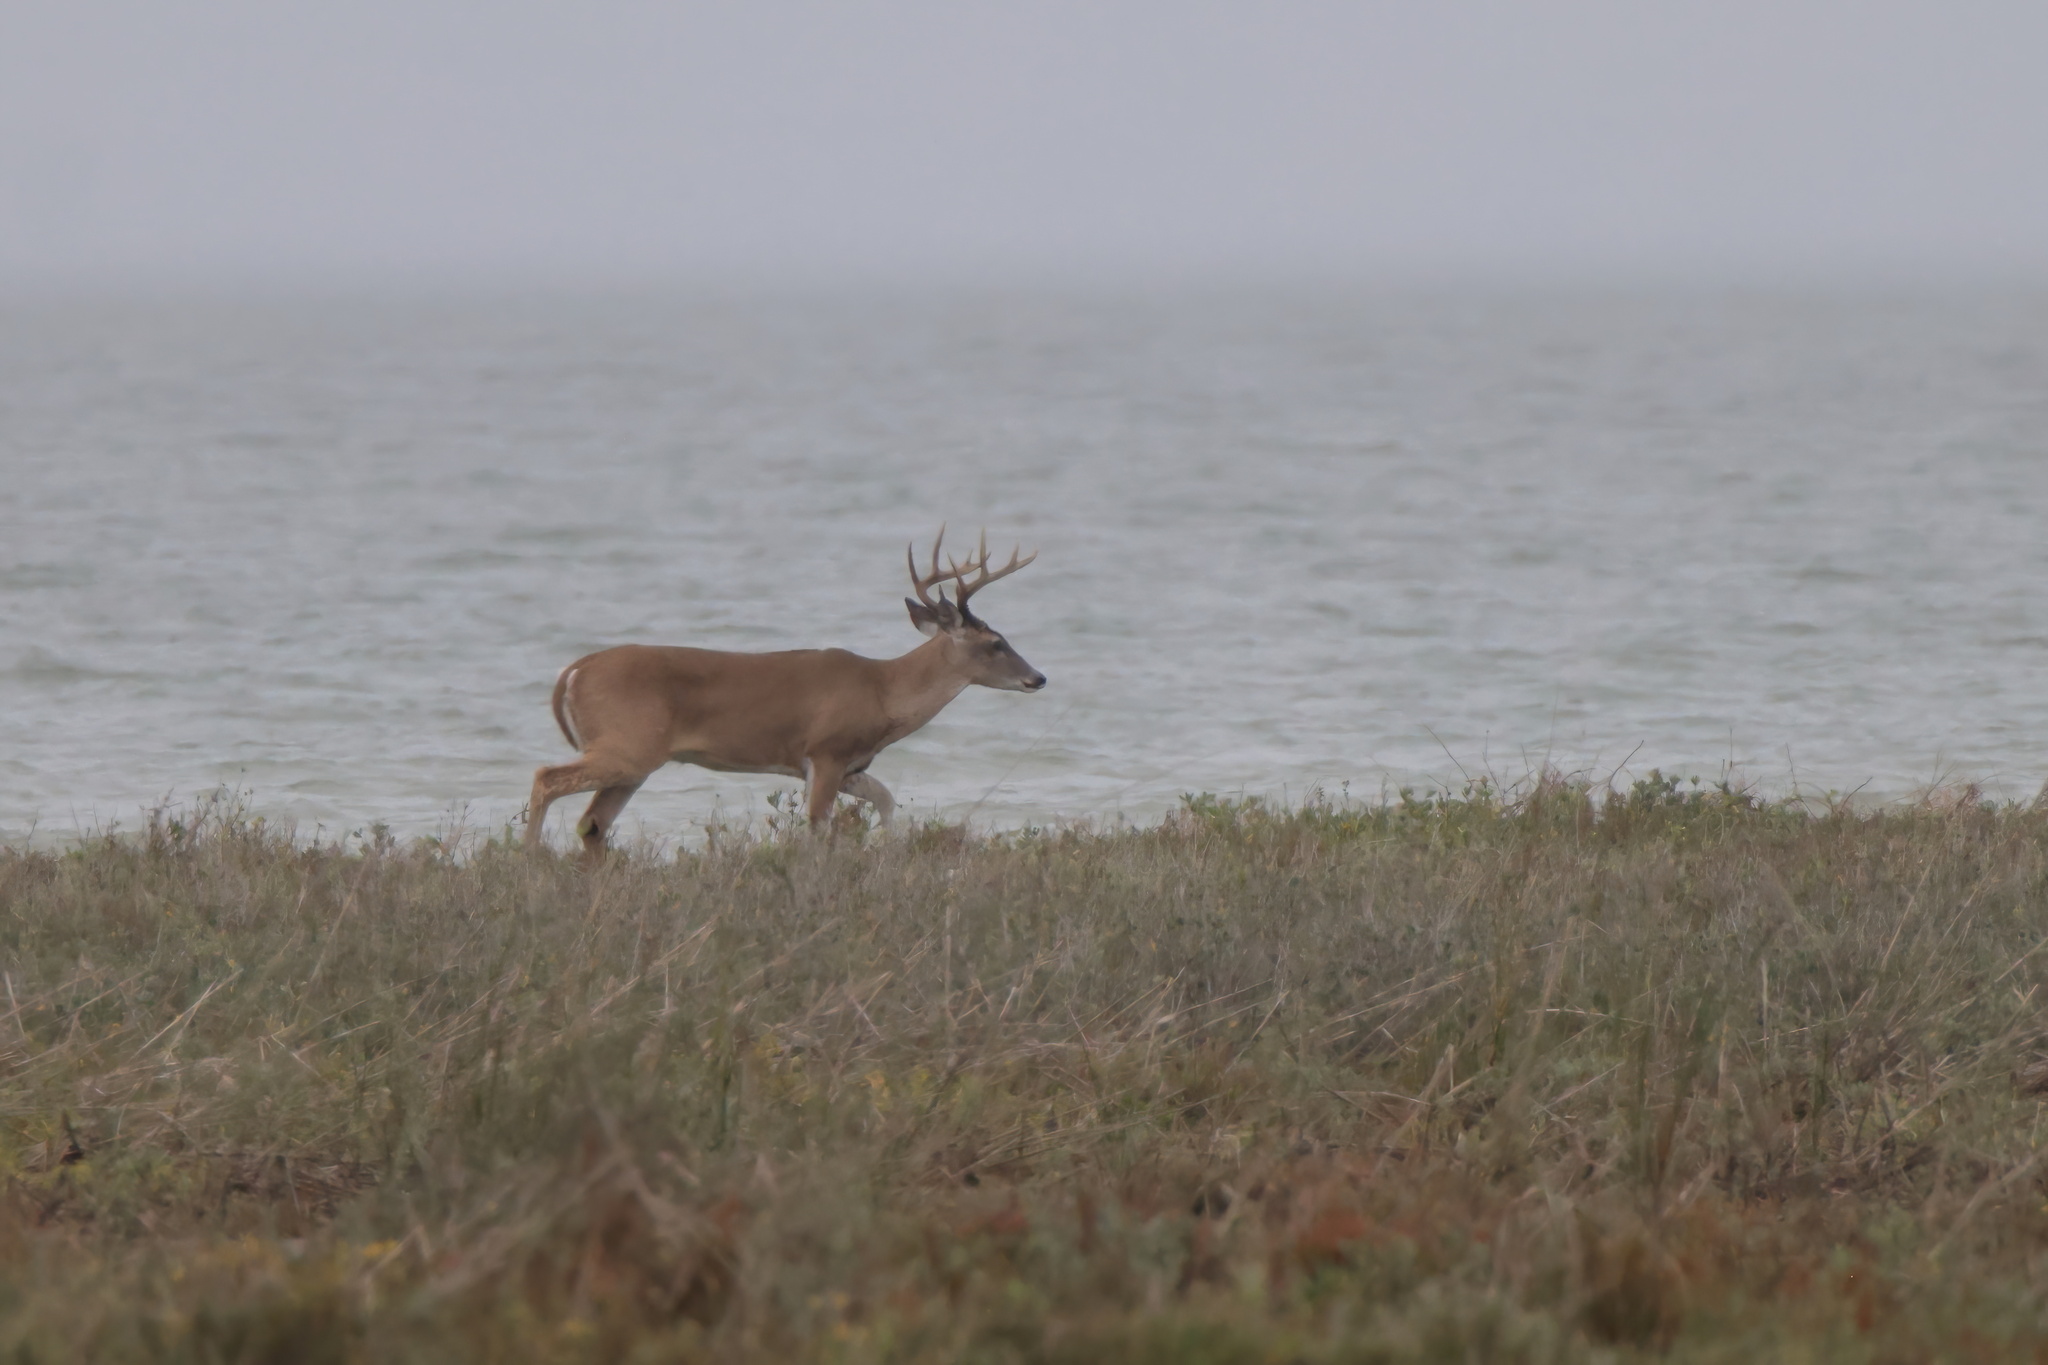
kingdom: Animalia
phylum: Chordata
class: Mammalia
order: Artiodactyla
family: Cervidae
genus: Odocoileus
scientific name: Odocoileus virginianus
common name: White-tailed deer
